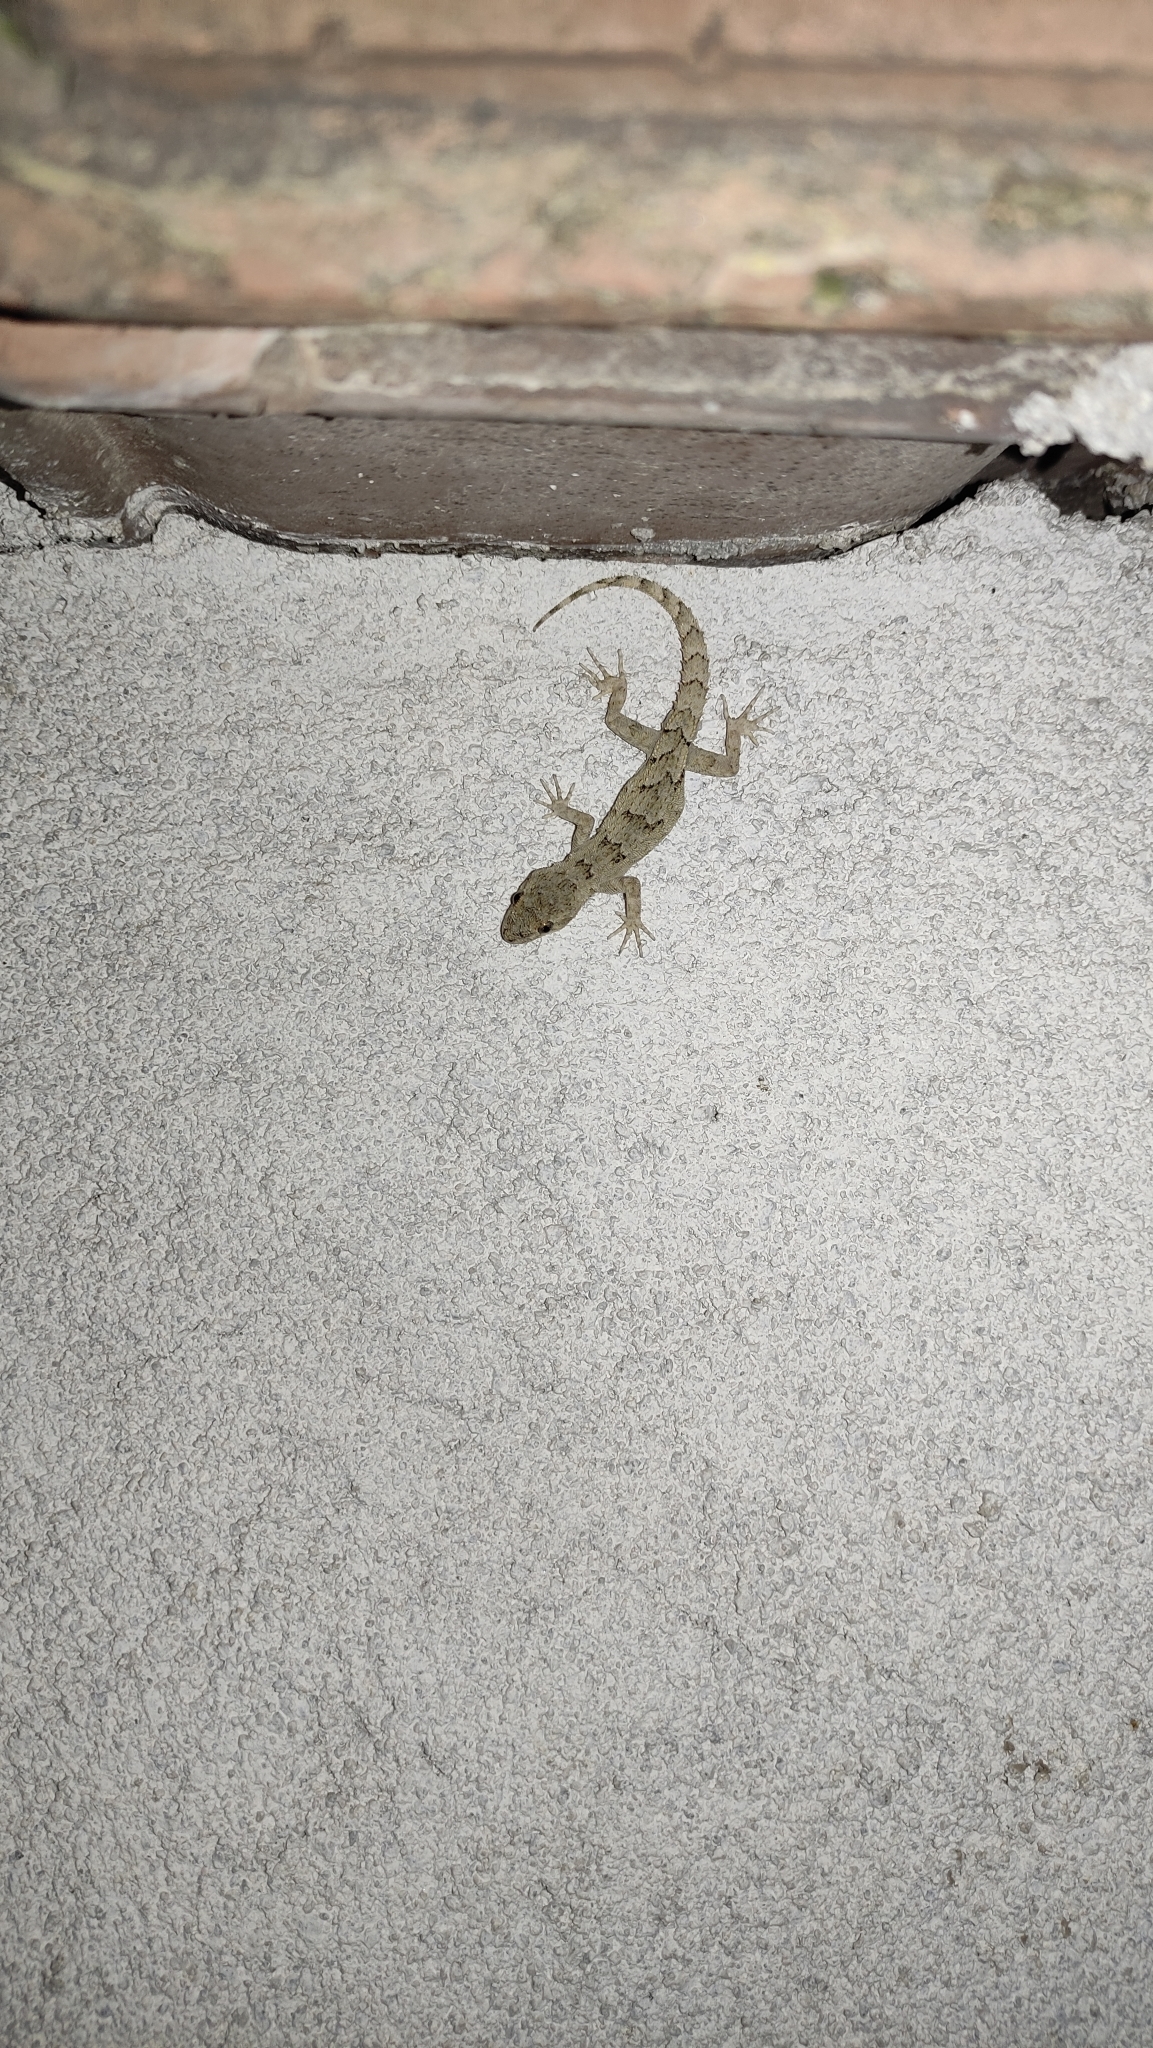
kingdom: Animalia
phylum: Chordata
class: Squamata
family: Gekkonidae
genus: Mediodactylus
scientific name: Mediodactylus kotschyi
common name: Kotschy's gecko
